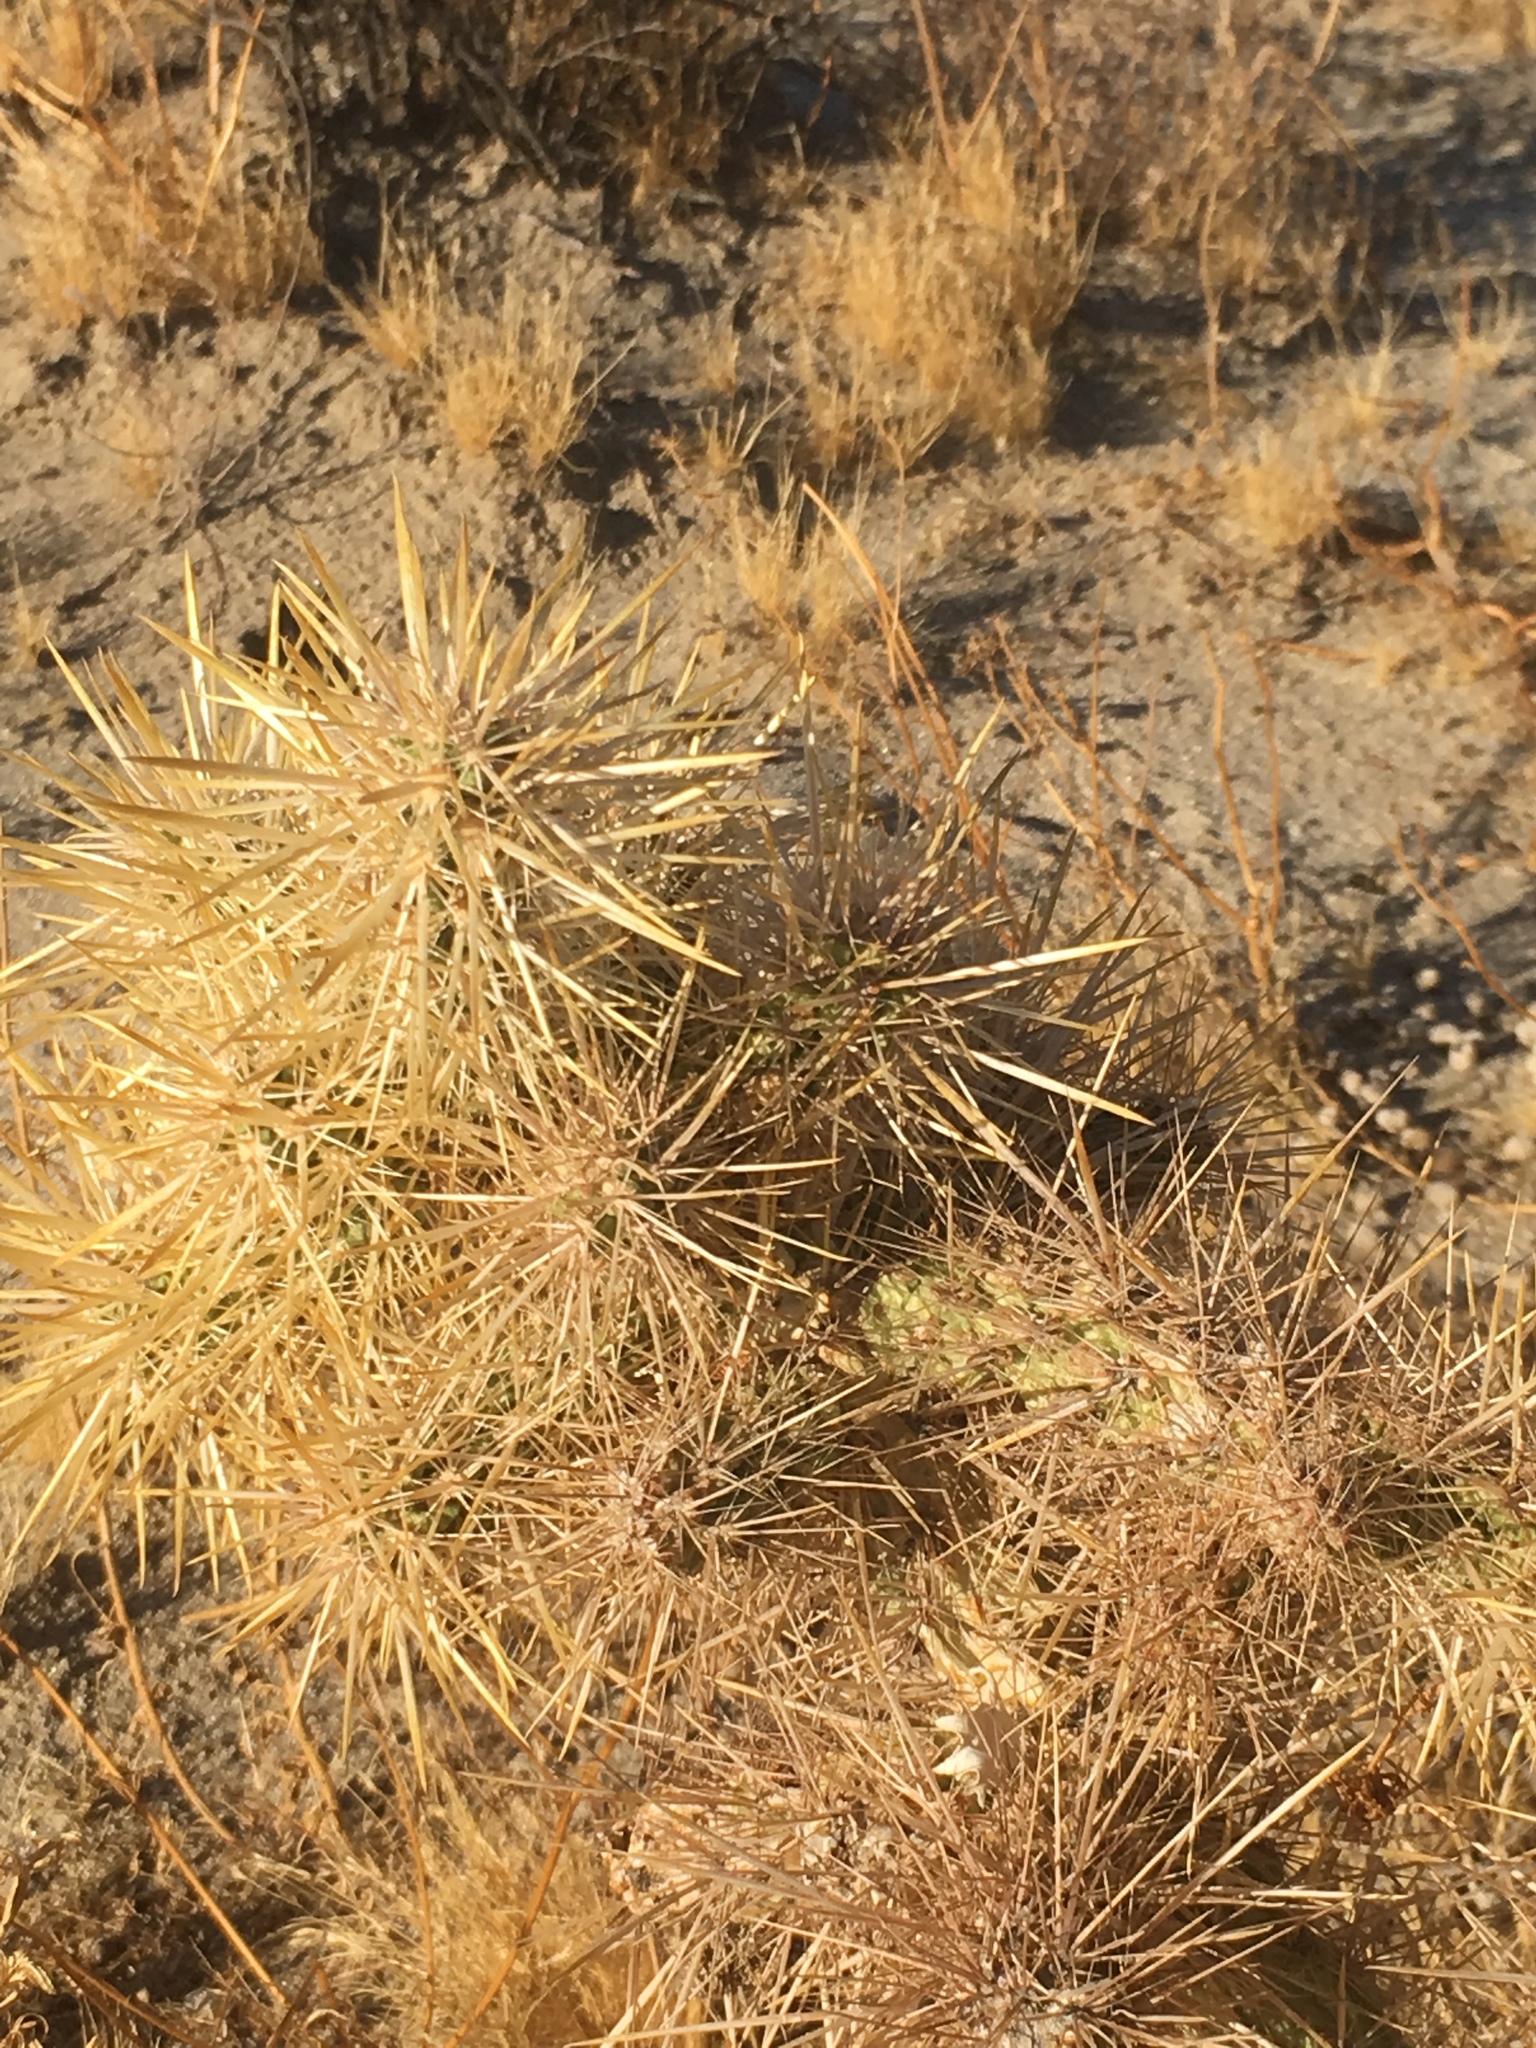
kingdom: Plantae
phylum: Tracheophyta
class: Magnoliopsida
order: Caryophyllales
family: Cactaceae
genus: Cylindropuntia
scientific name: Cylindropuntia echinocarpa
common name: Ground cholla
